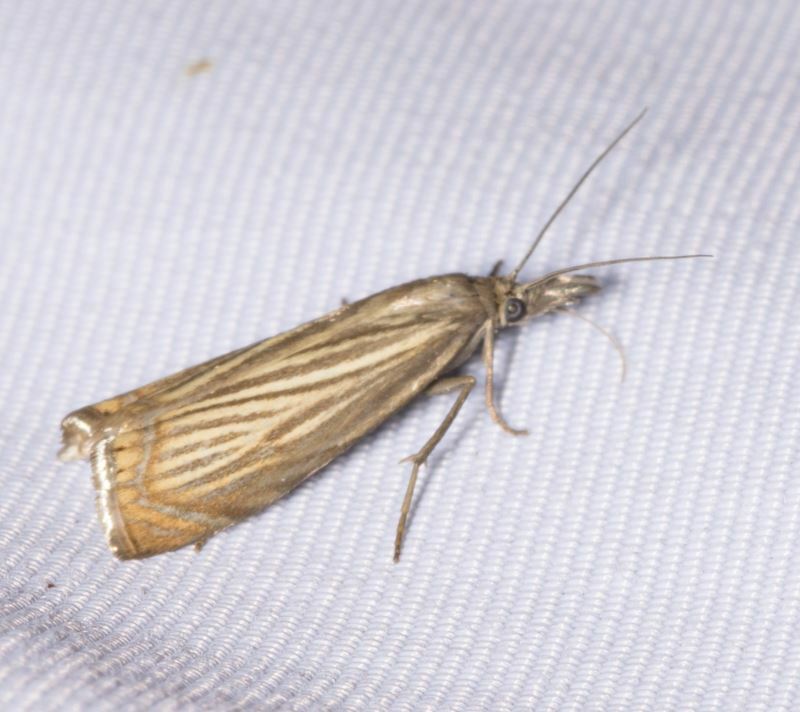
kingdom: Animalia
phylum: Arthropoda
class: Insecta
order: Lepidoptera
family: Crambidae
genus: Chrysoteuchia
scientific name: Chrysoteuchia culmella
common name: Garden grass-veneer
